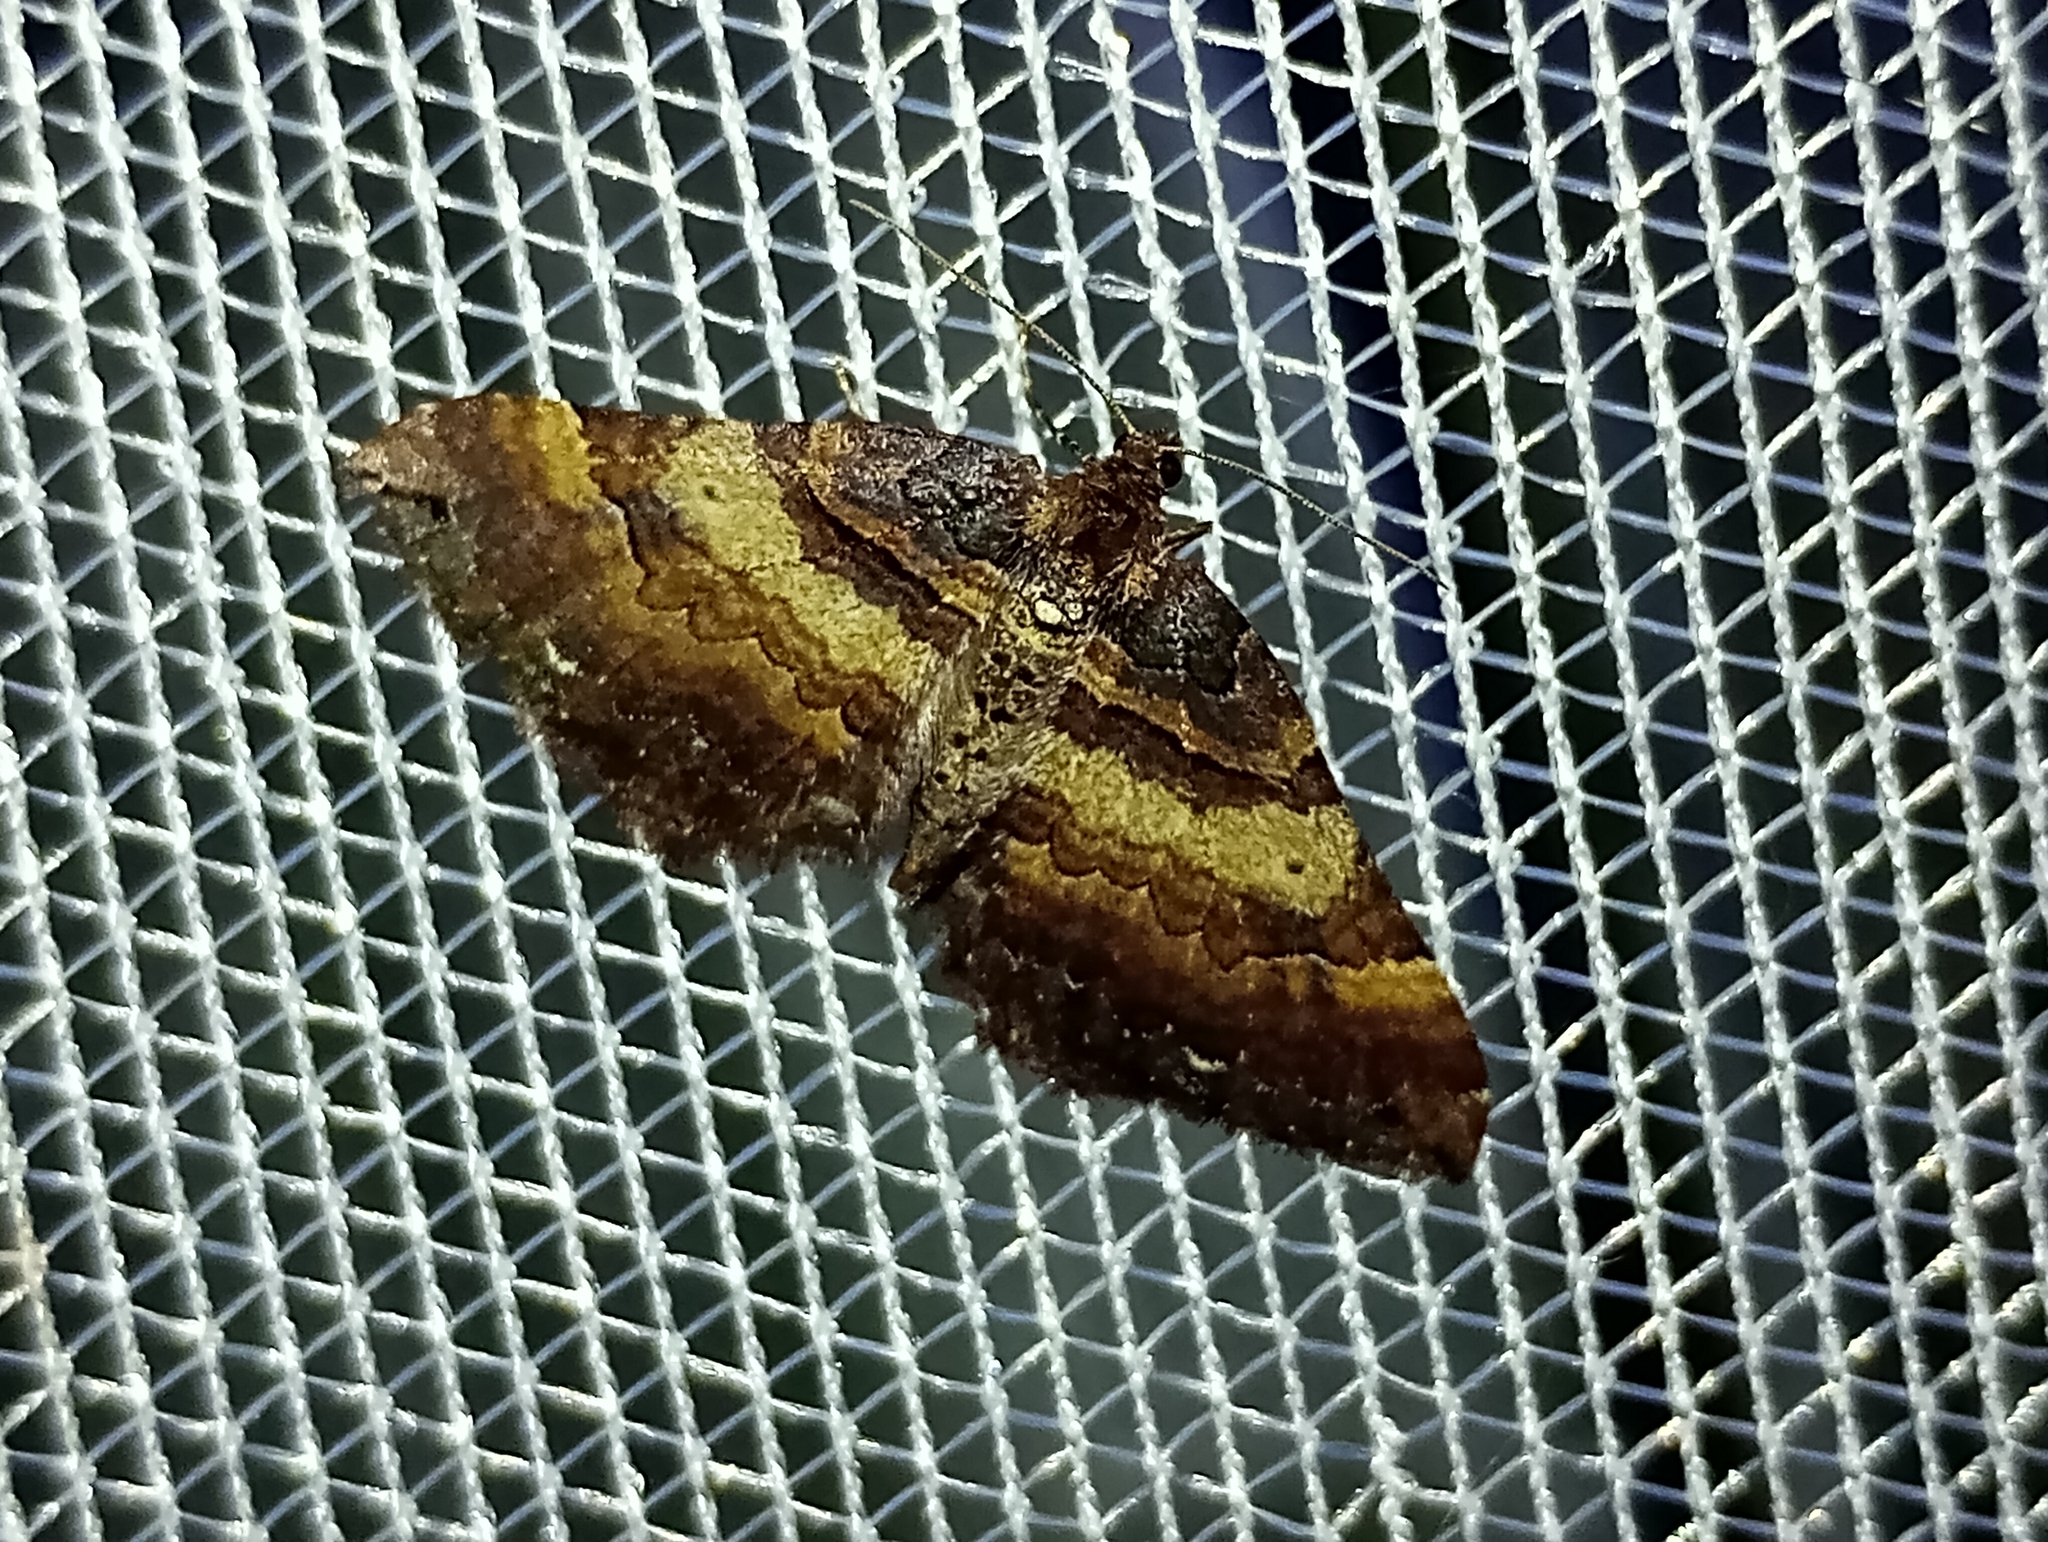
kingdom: Animalia
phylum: Arthropoda
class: Insecta
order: Lepidoptera
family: Geometridae
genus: Anticlea
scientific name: Anticlea badiata
